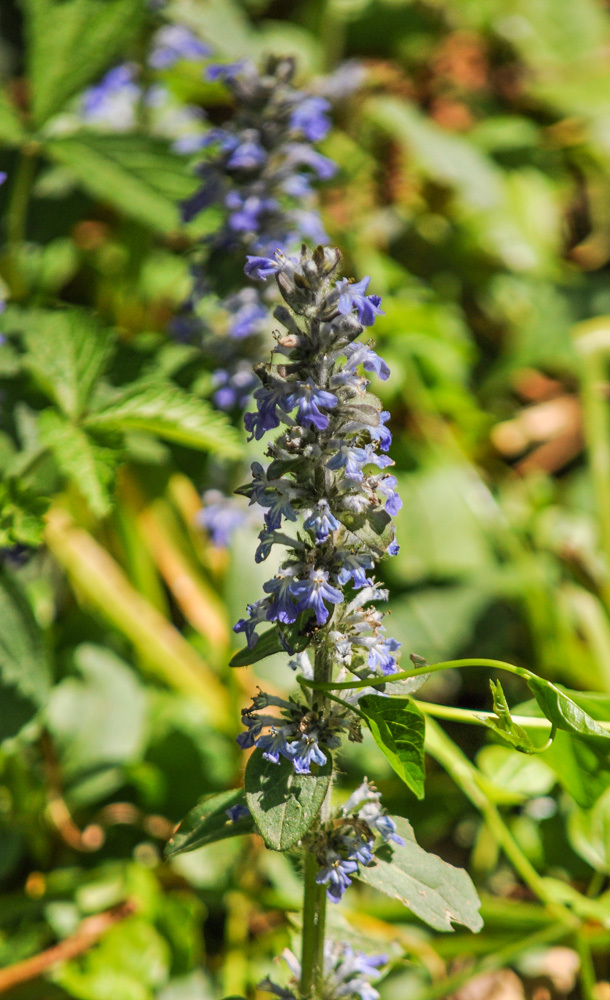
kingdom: Plantae
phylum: Tracheophyta
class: Magnoliopsida
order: Lamiales
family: Lamiaceae
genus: Ajuga
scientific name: Ajuga reptans
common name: Bugle
